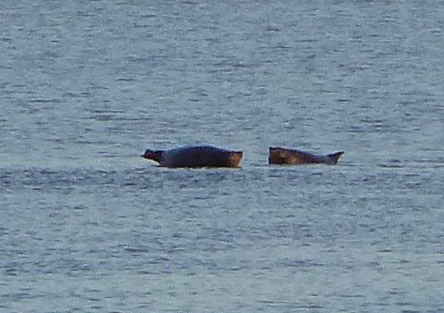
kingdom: Animalia
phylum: Chordata
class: Mammalia
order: Carnivora
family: Phocidae
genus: Phoca
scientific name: Phoca vitulina
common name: Harbor seal
